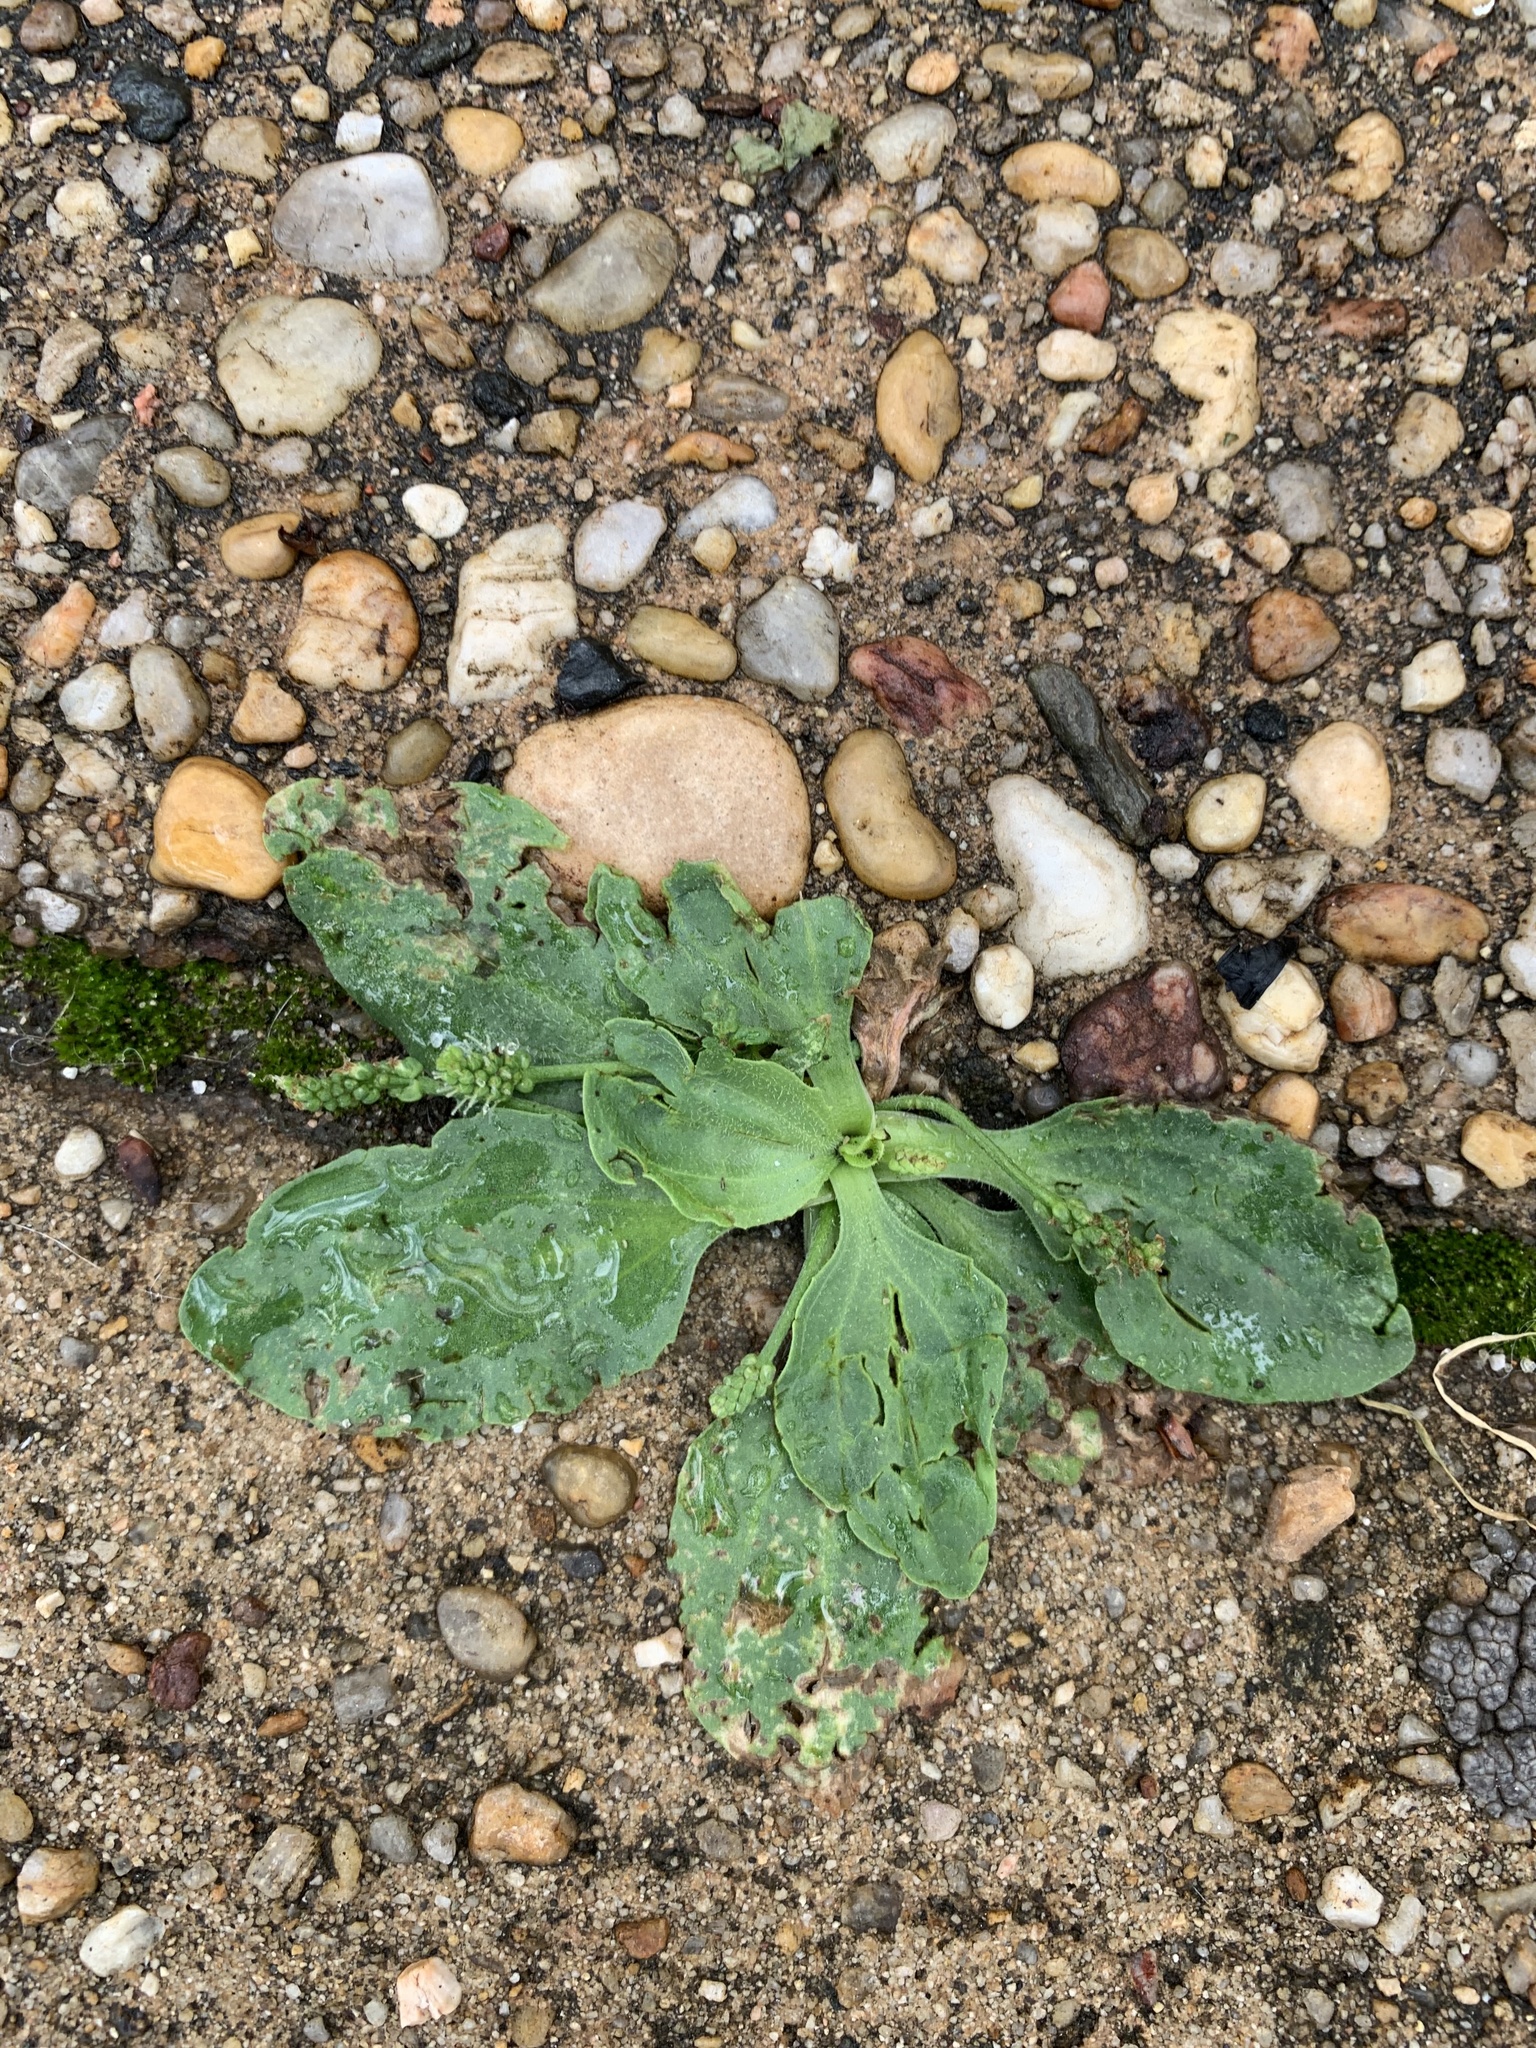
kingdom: Plantae
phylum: Tracheophyta
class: Magnoliopsida
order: Lamiales
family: Plantaginaceae
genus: Plantago
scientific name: Plantago major
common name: Common plantain
